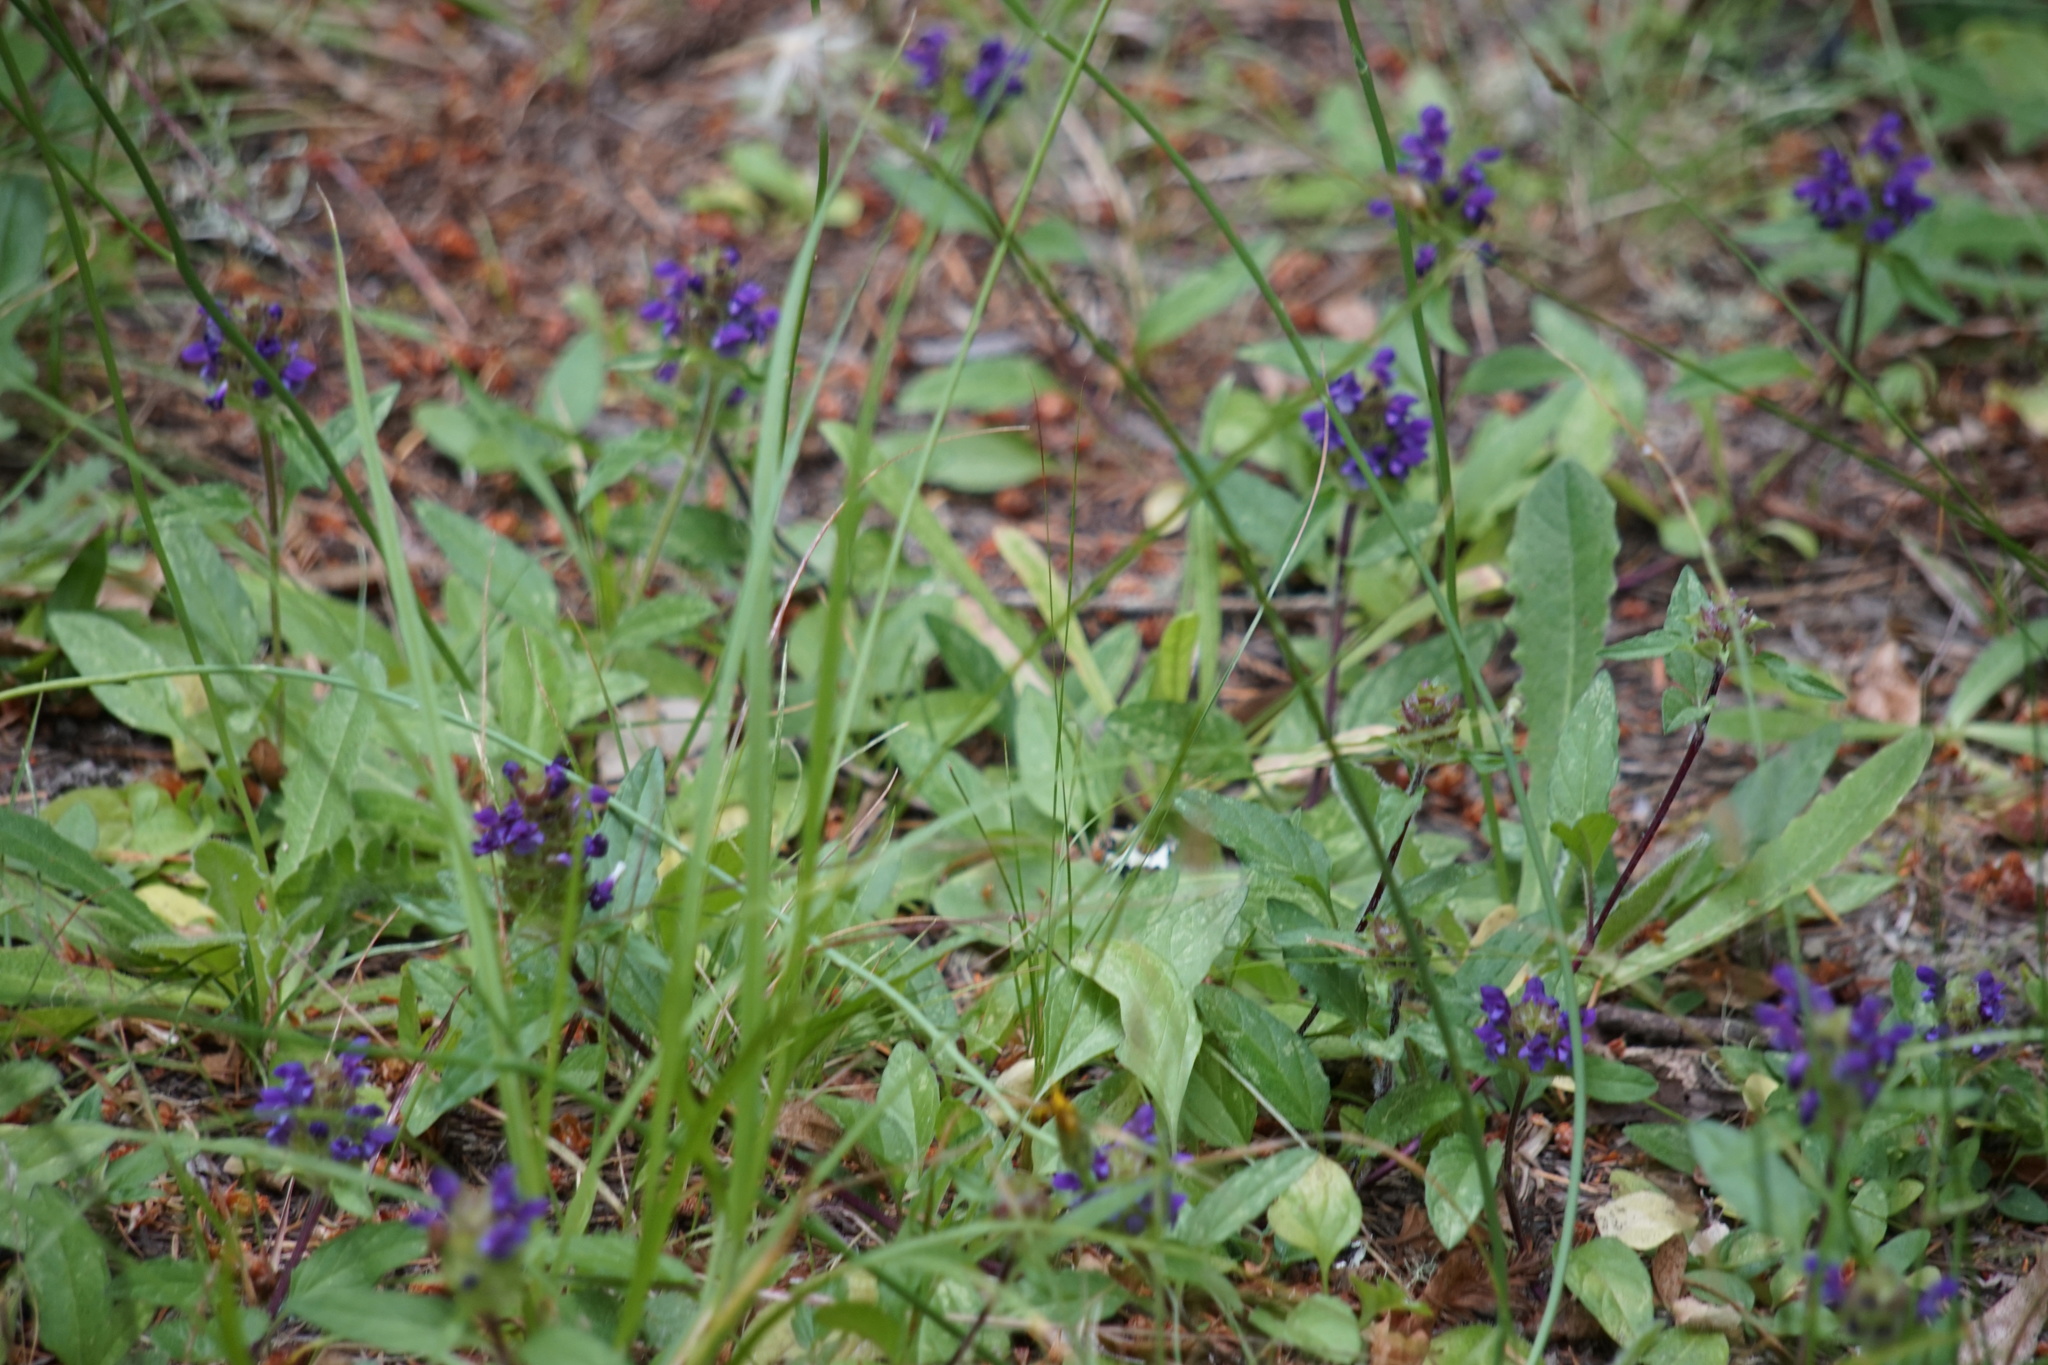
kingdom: Plantae
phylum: Tracheophyta
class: Magnoliopsida
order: Lamiales
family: Lamiaceae
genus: Prunella
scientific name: Prunella vulgaris
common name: Heal-all
